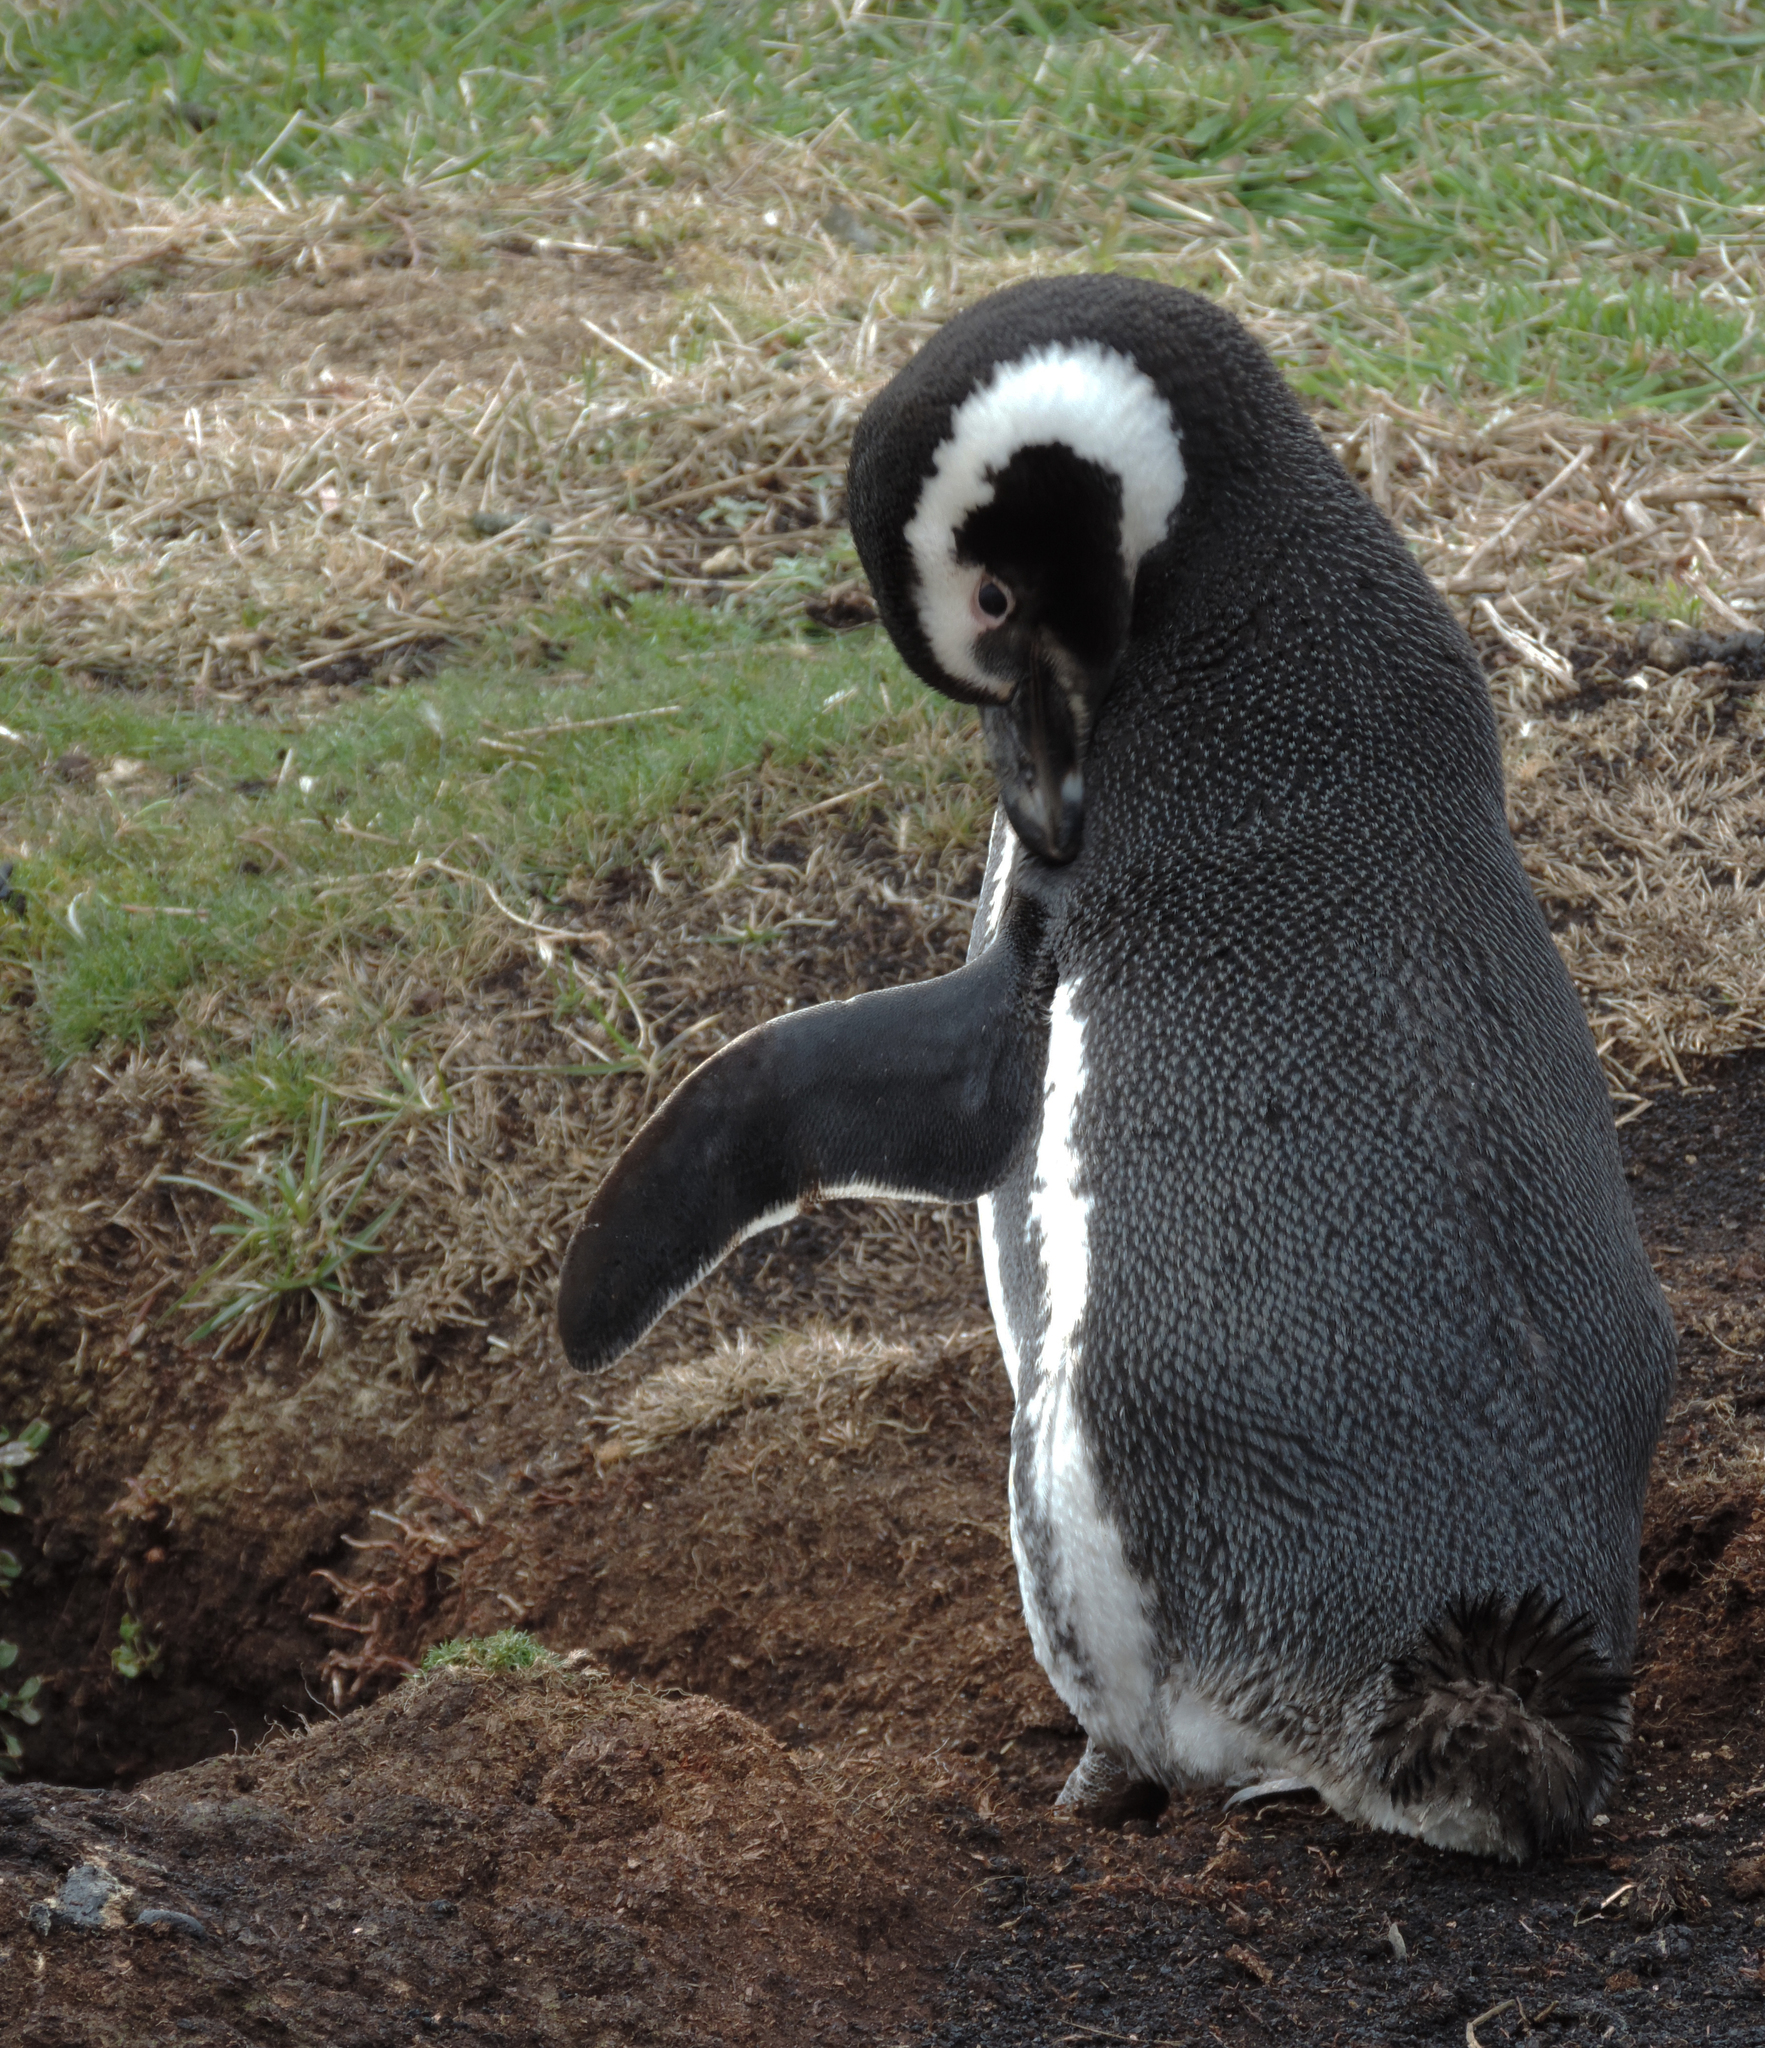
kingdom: Animalia
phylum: Chordata
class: Aves
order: Sphenisciformes
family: Spheniscidae
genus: Spheniscus
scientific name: Spheniscus magellanicus
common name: Magellanic penguin
